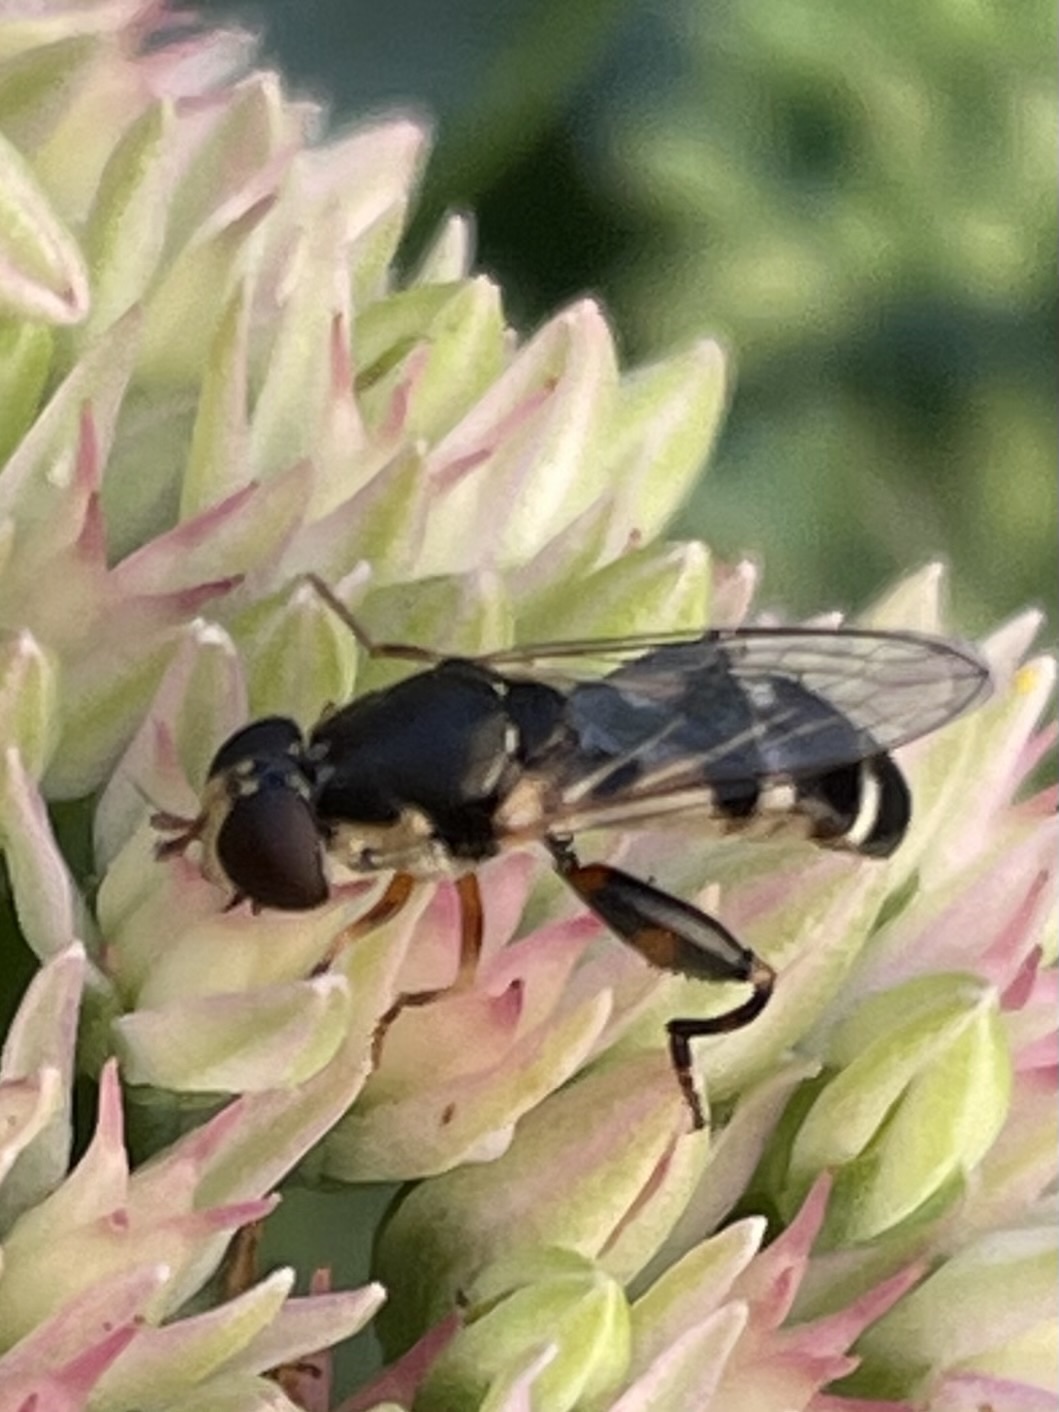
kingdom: Animalia
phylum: Arthropoda
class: Insecta
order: Diptera
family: Syrphidae
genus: Syritta
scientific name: Syritta pipiens
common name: Hover fly
